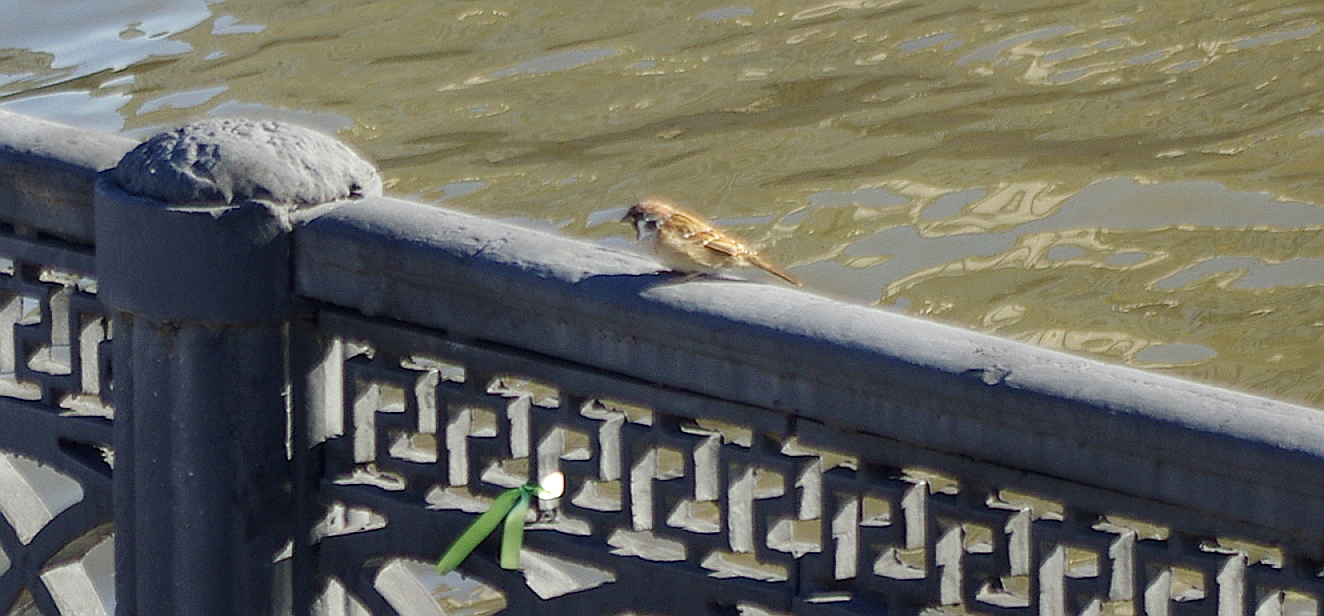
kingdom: Animalia
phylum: Chordata
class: Aves
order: Passeriformes
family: Passeridae
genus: Passer
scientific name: Passer montanus
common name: Eurasian tree sparrow
